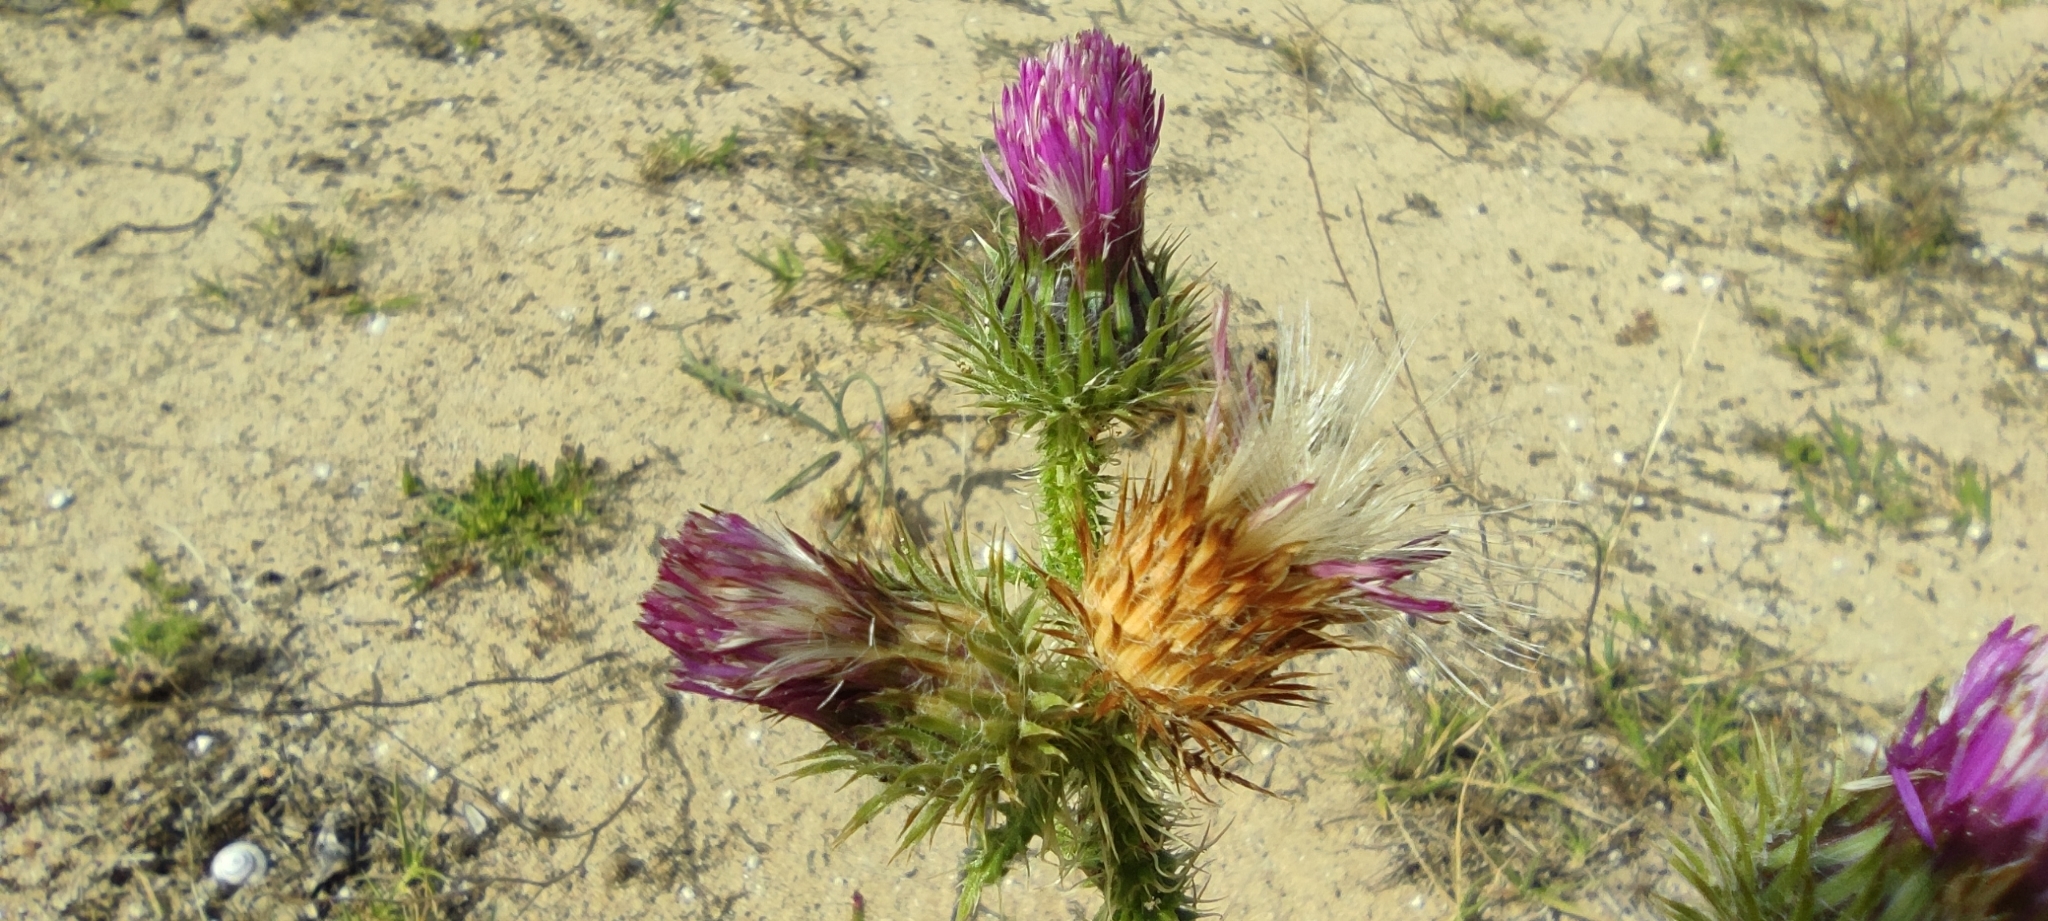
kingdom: Plantae
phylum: Tracheophyta
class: Magnoliopsida
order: Asterales
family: Asteraceae
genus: Carduus
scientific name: Carduus myriacanthus
